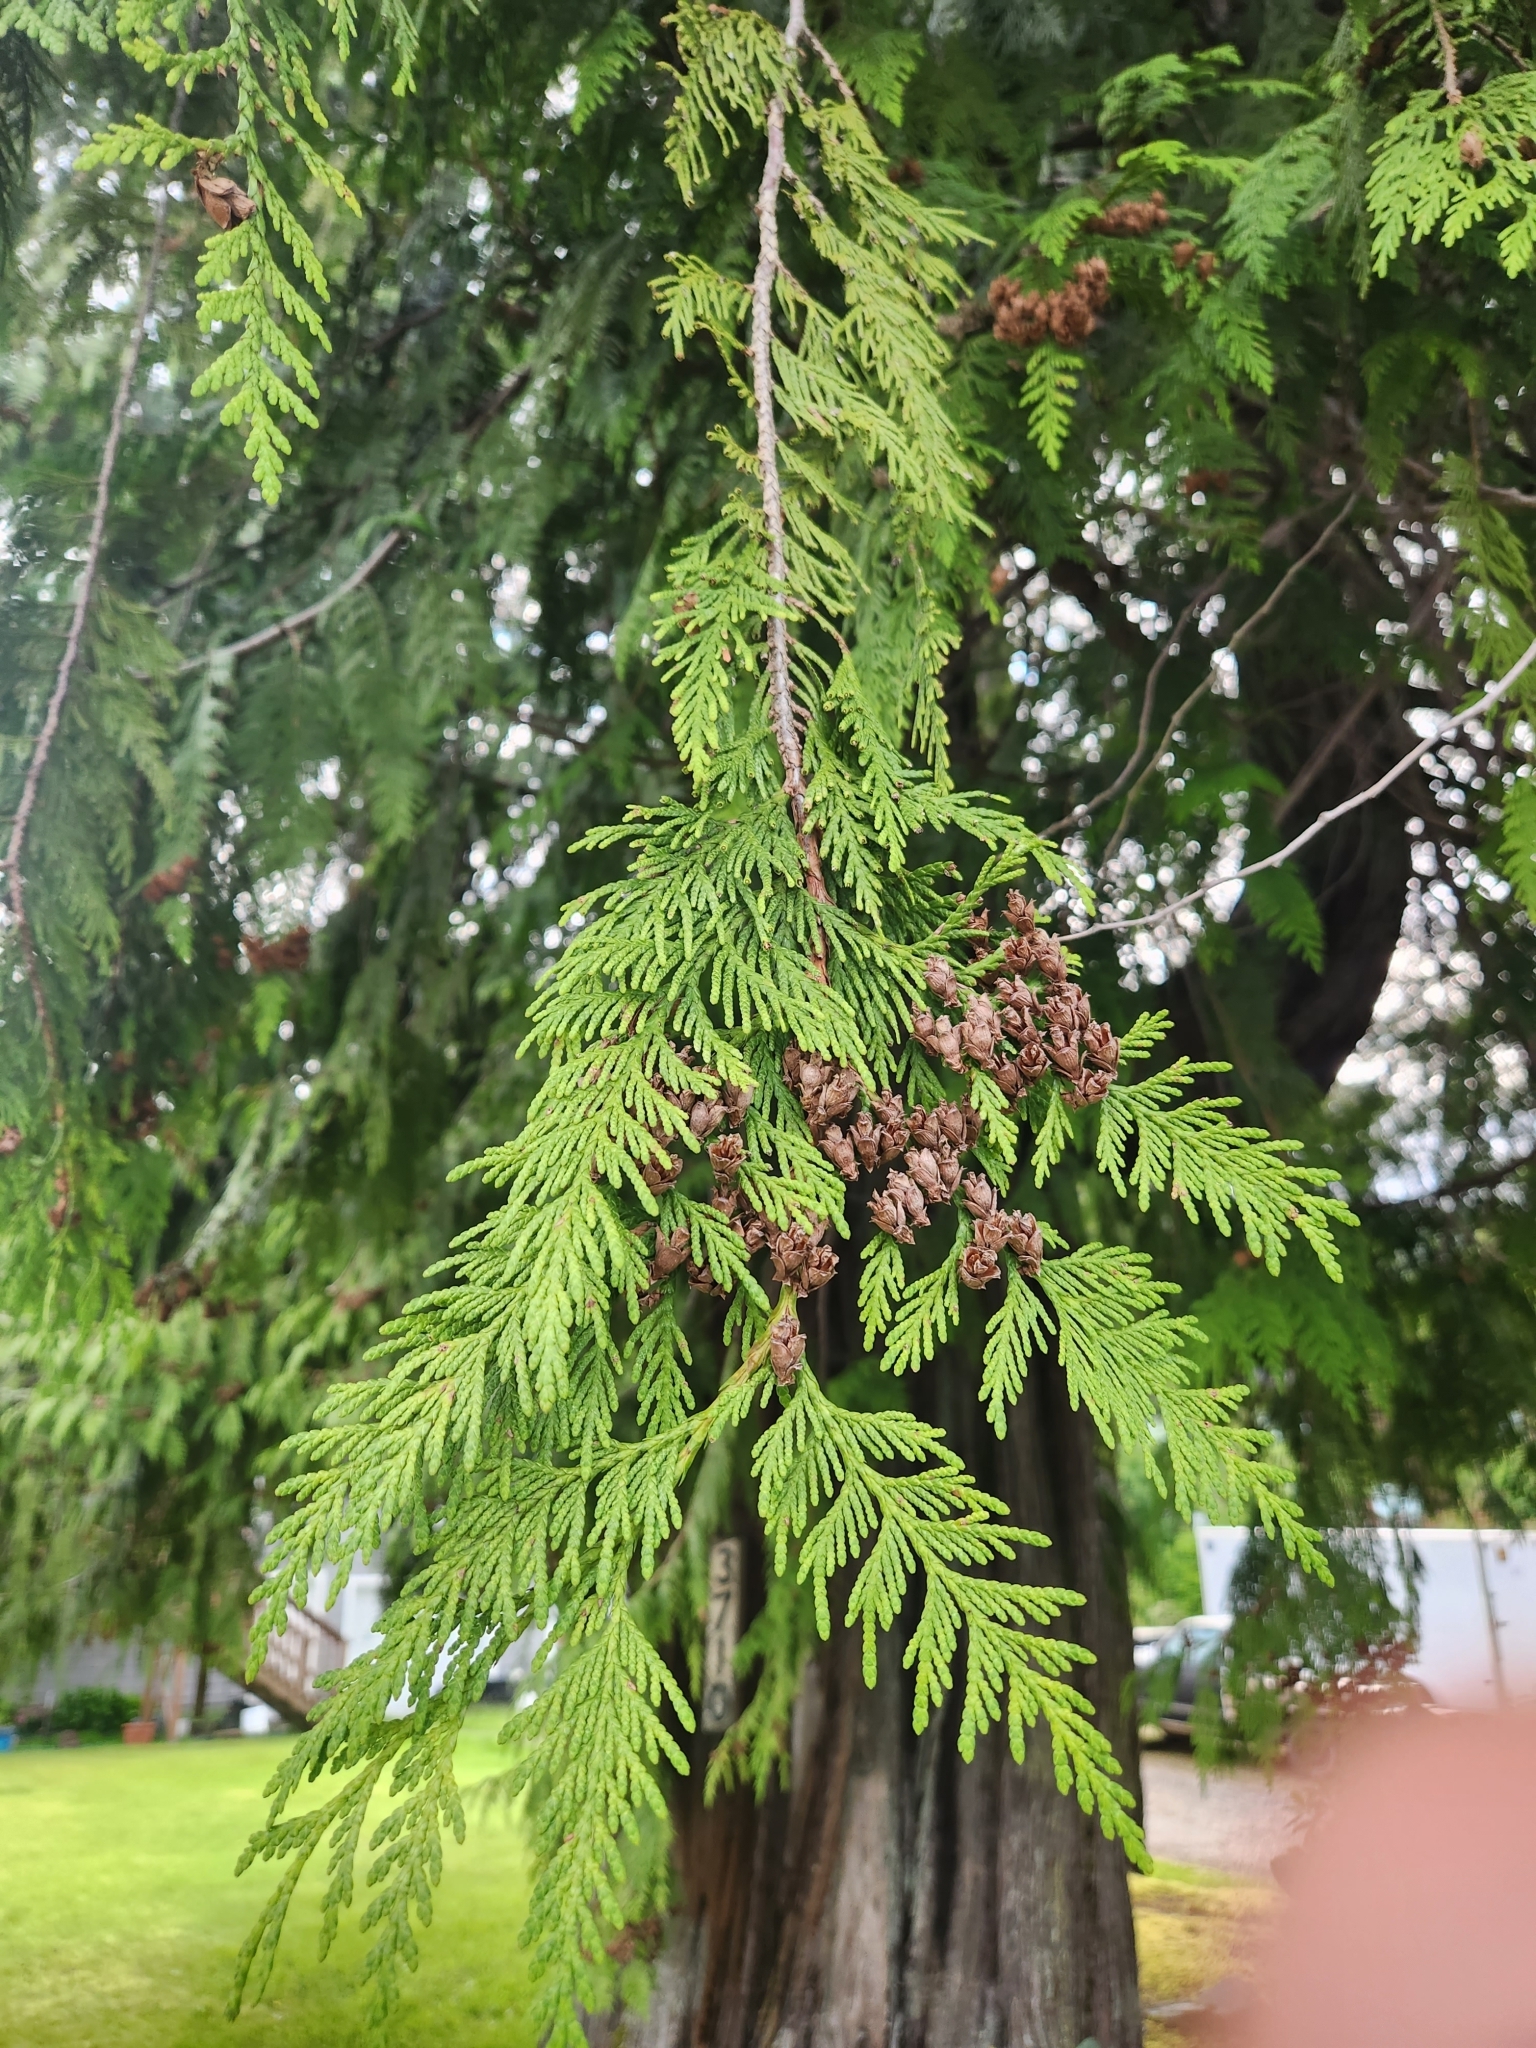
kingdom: Plantae
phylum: Tracheophyta
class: Pinopsida
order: Pinales
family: Cupressaceae
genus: Thuja
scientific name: Thuja plicata
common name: Western red-cedar
